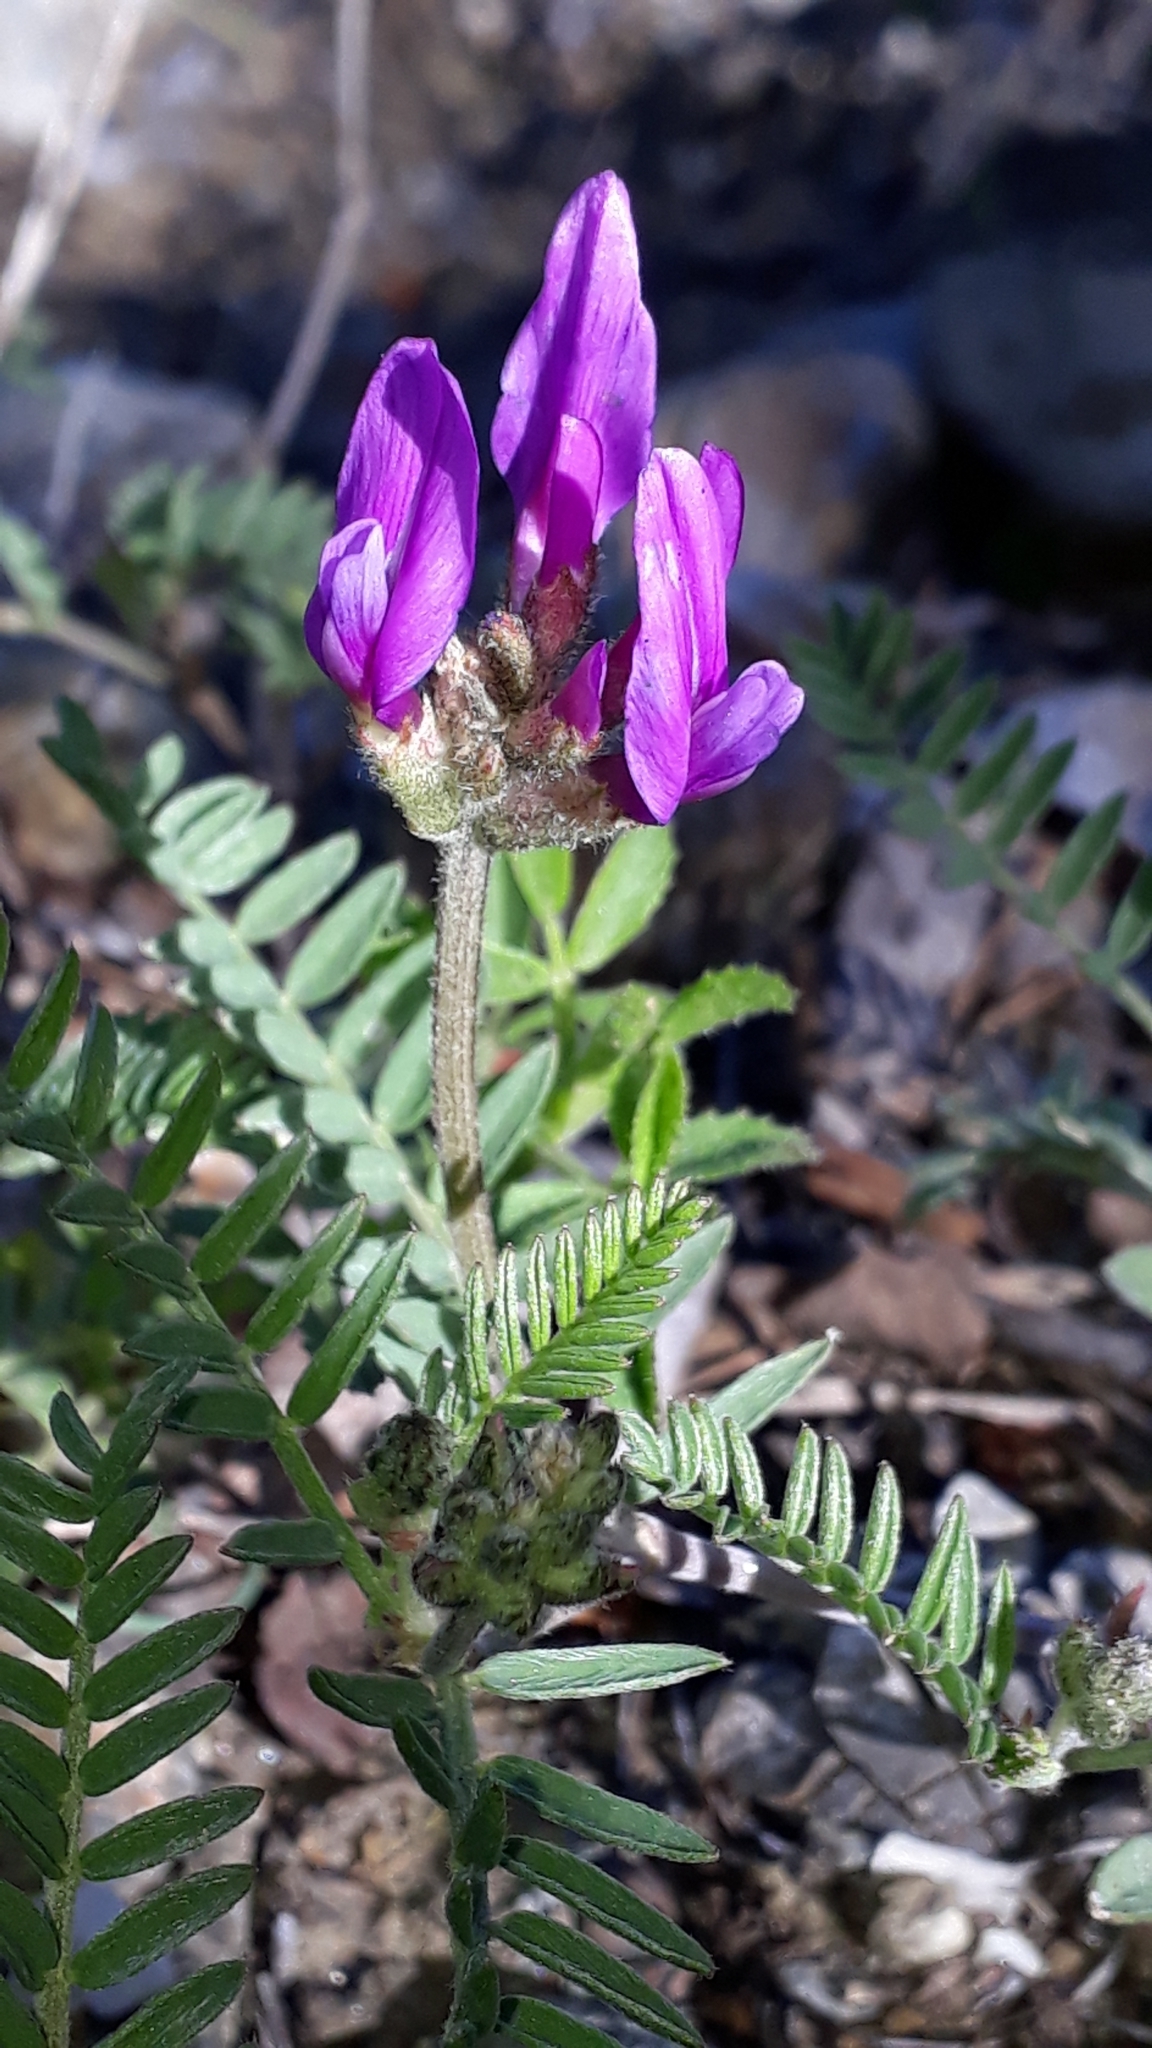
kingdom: Plantae
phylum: Tracheophyta
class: Magnoliopsida
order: Fabales
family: Fabaceae
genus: Astragalus
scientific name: Astragalus onobrychis
